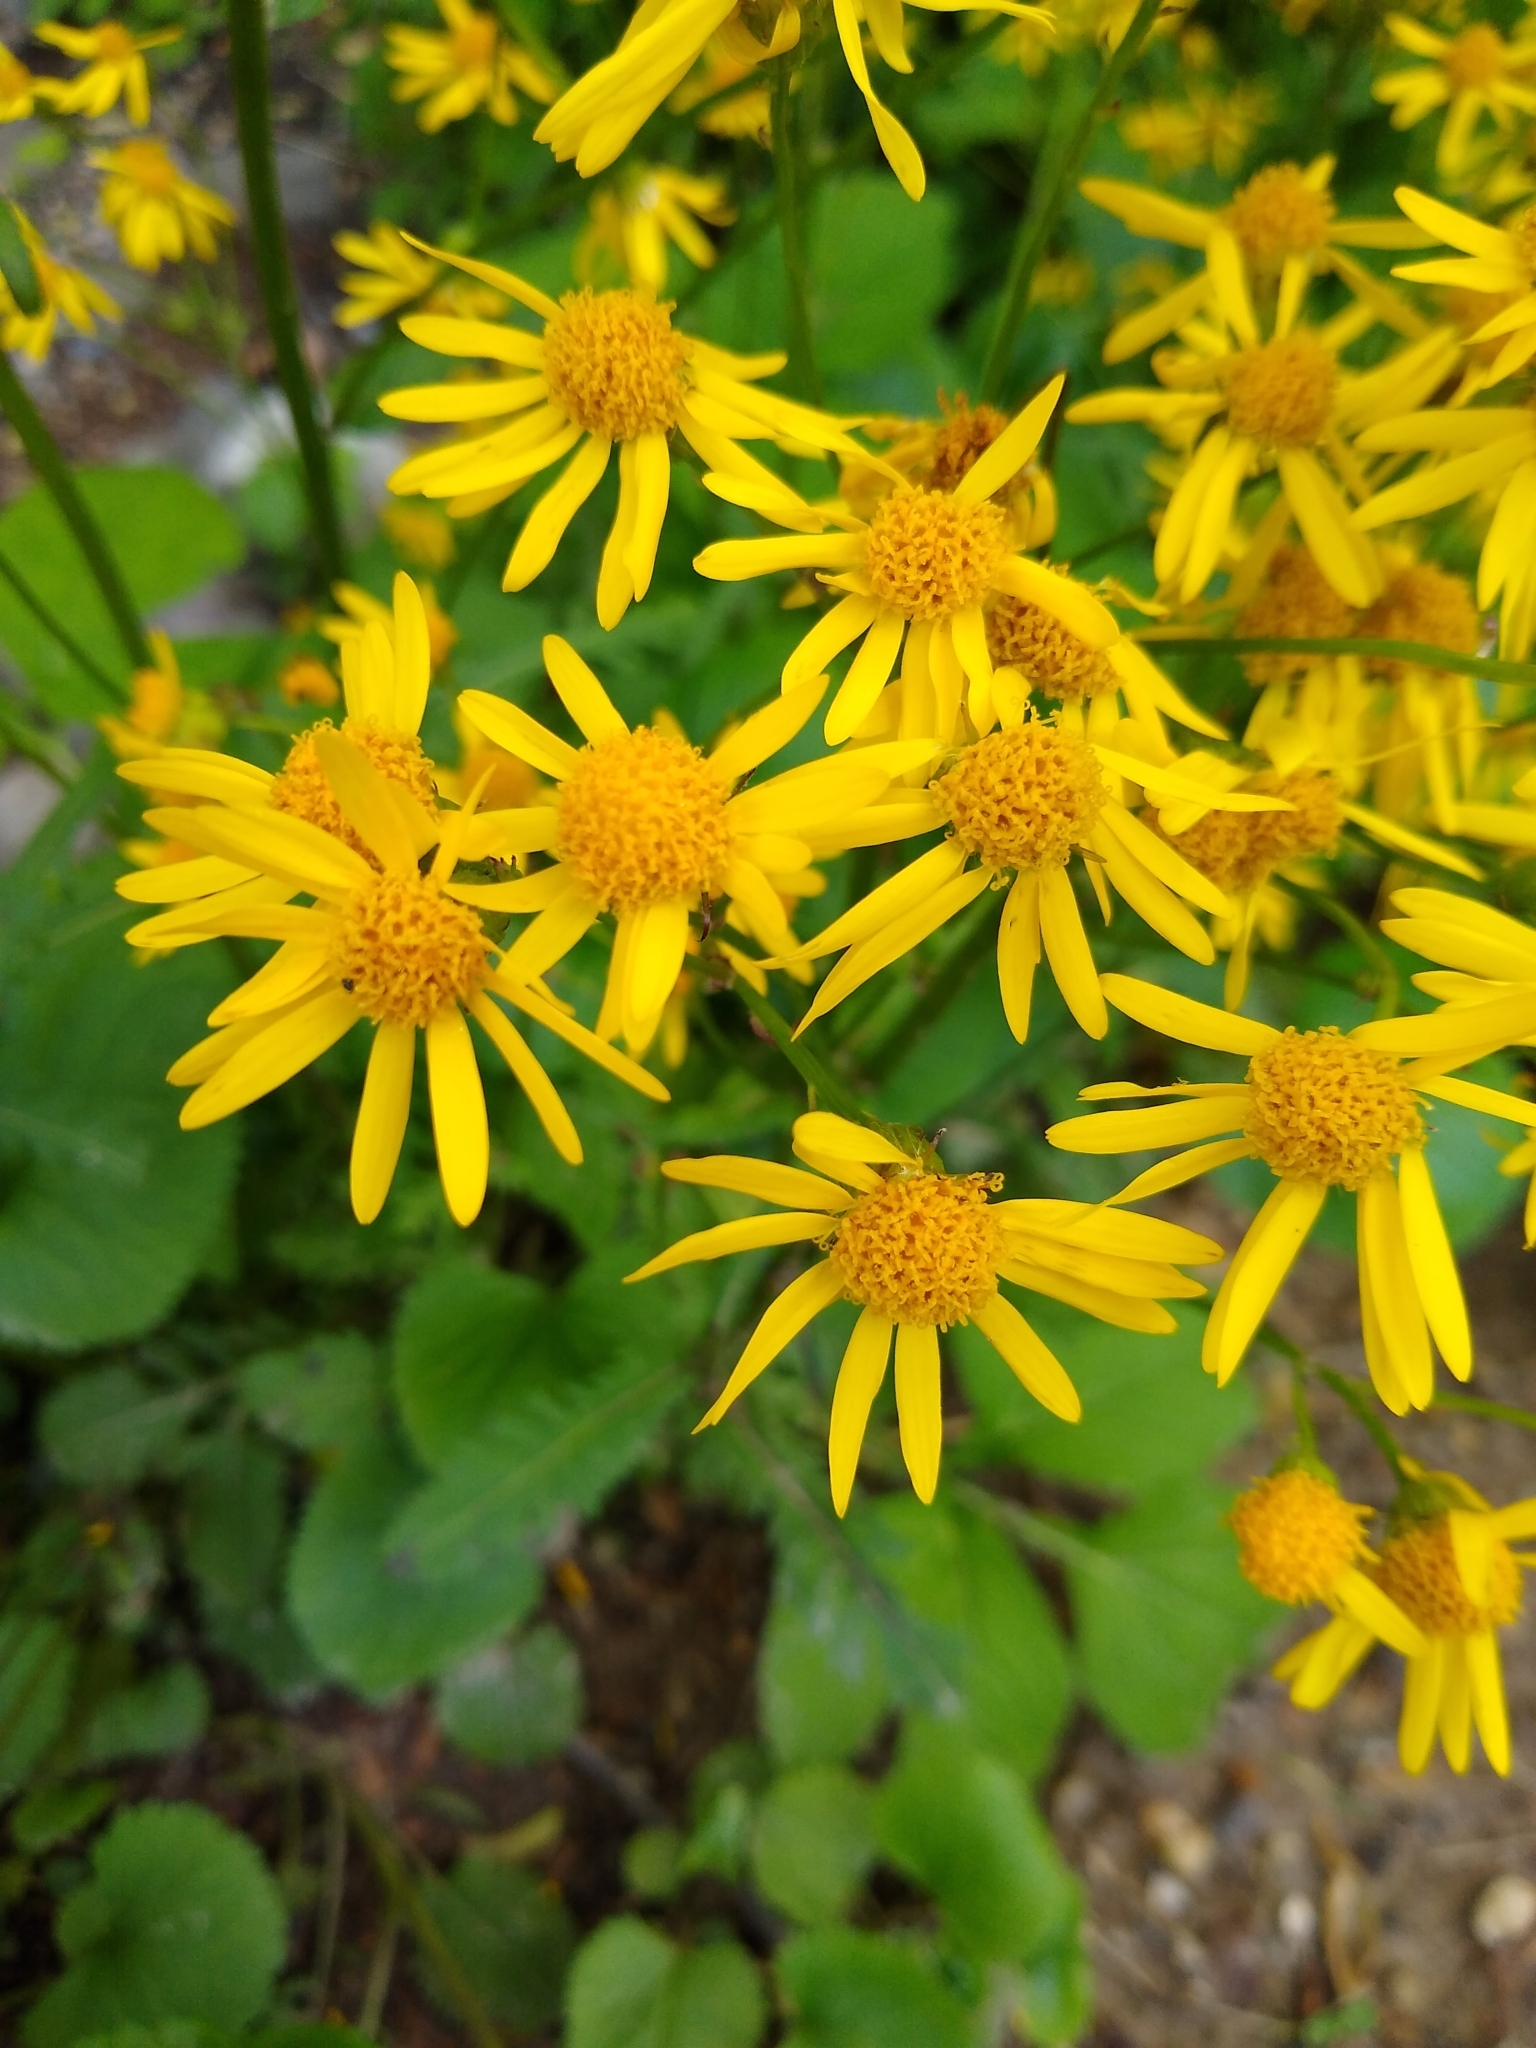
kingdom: Plantae
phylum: Tracheophyta
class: Magnoliopsida
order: Asterales
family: Asteraceae
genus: Packera
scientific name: Packera aurea
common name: Golden groundsel
